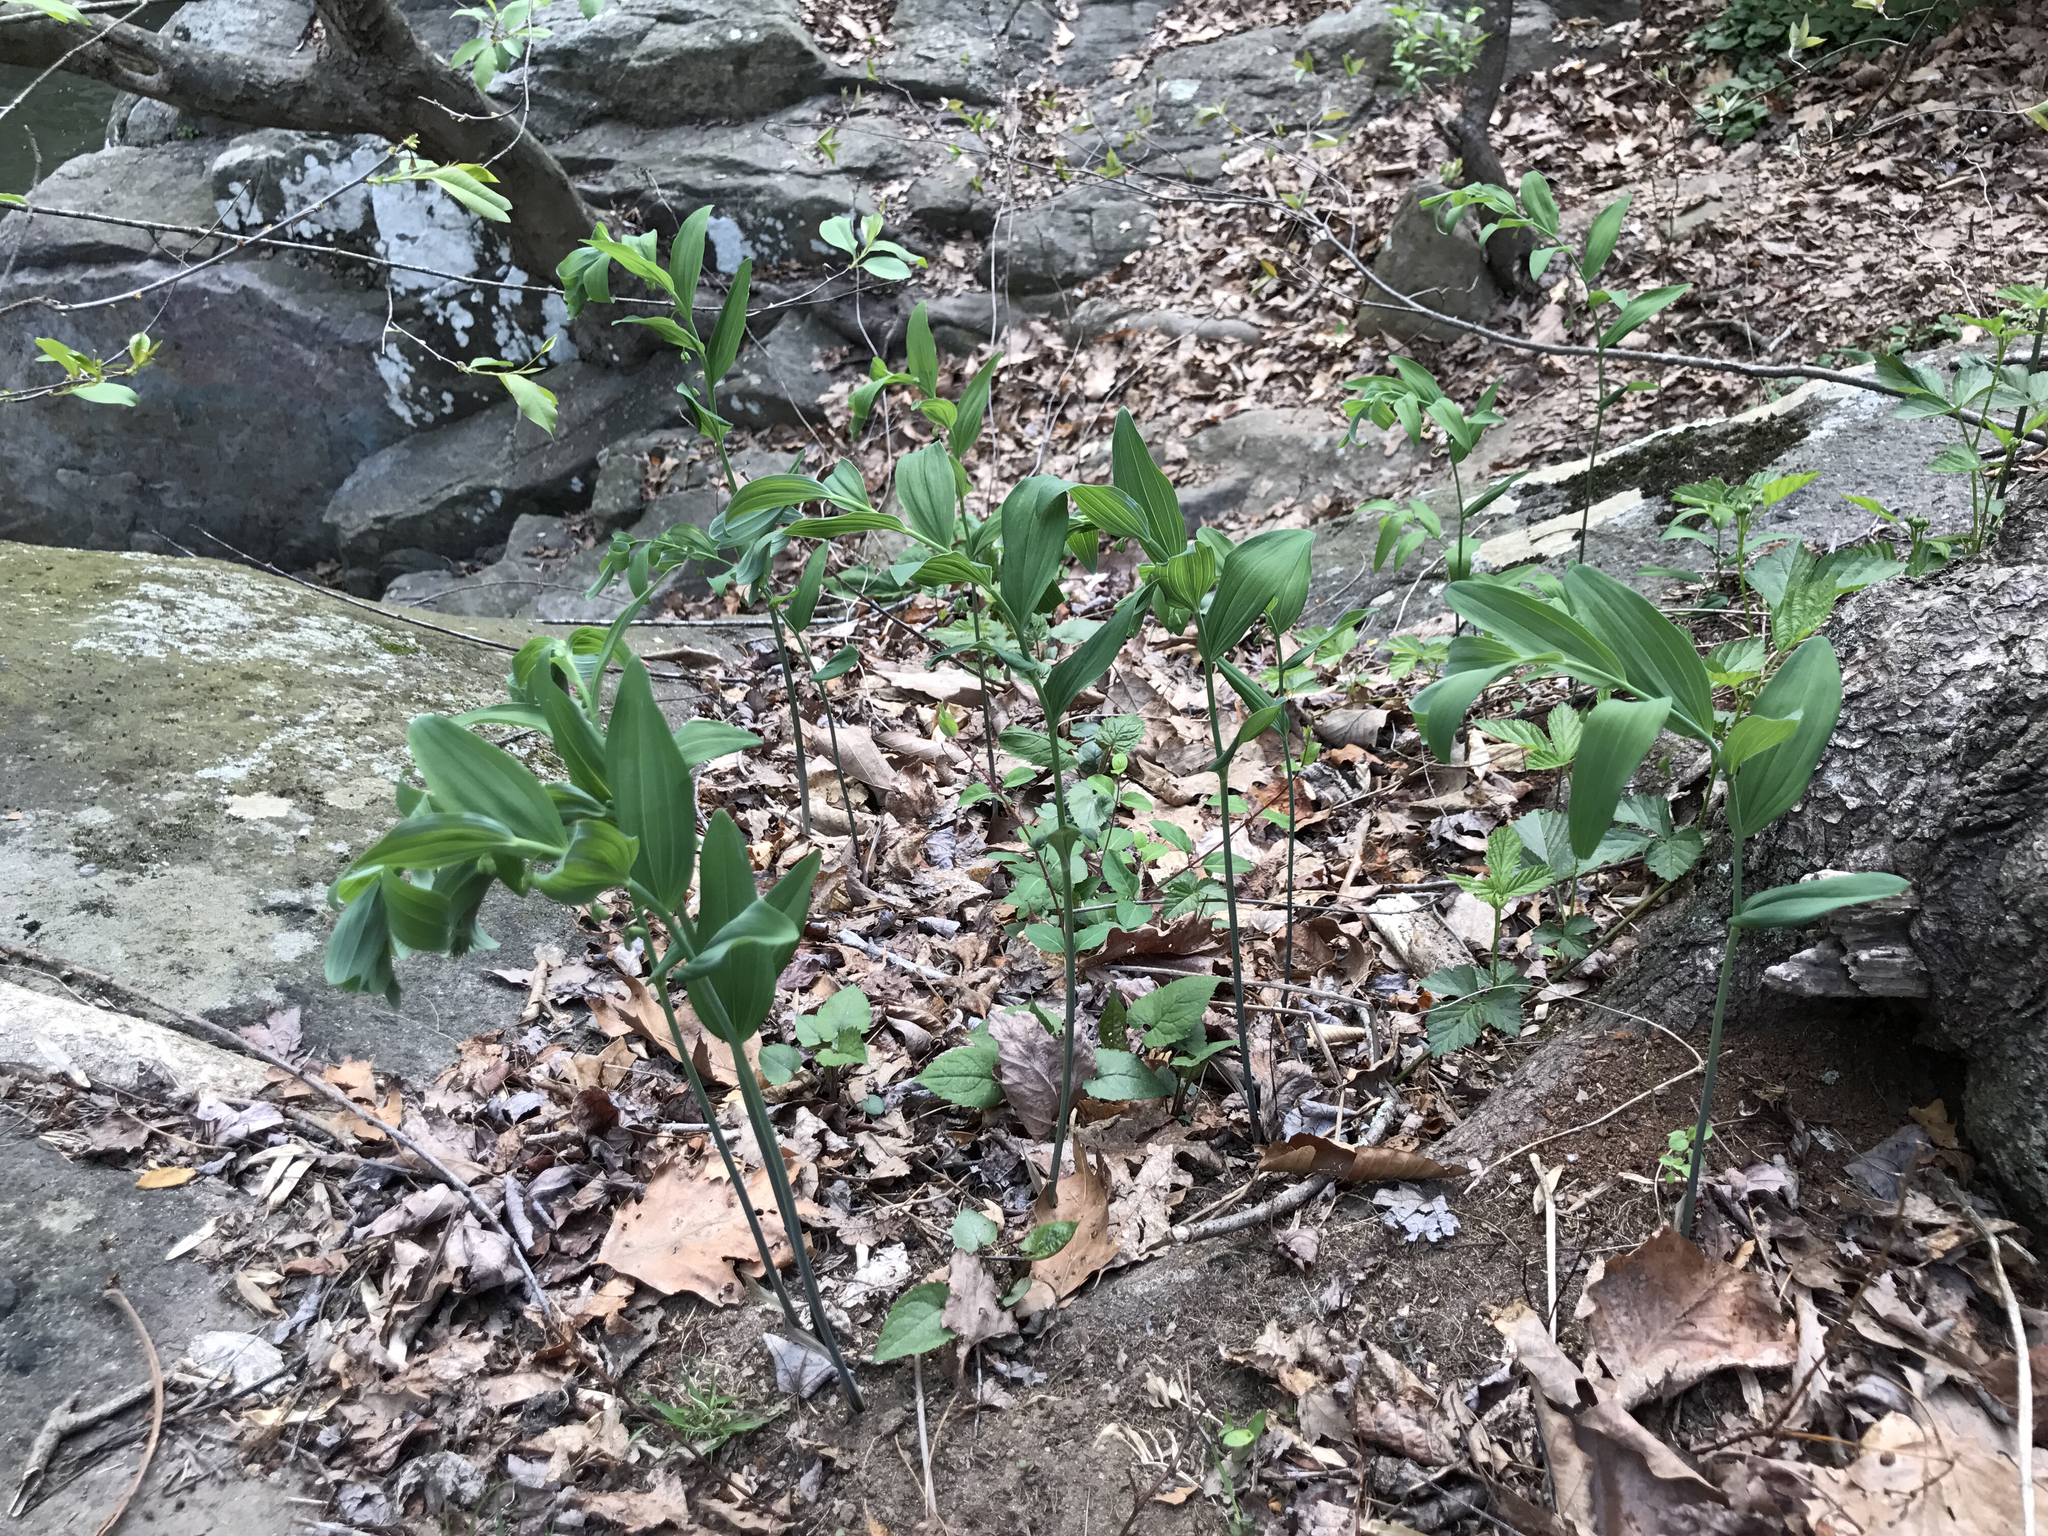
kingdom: Plantae
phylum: Tracheophyta
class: Liliopsida
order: Asparagales
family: Asparagaceae
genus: Polygonatum
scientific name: Polygonatum biflorum
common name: American solomon's-seal
